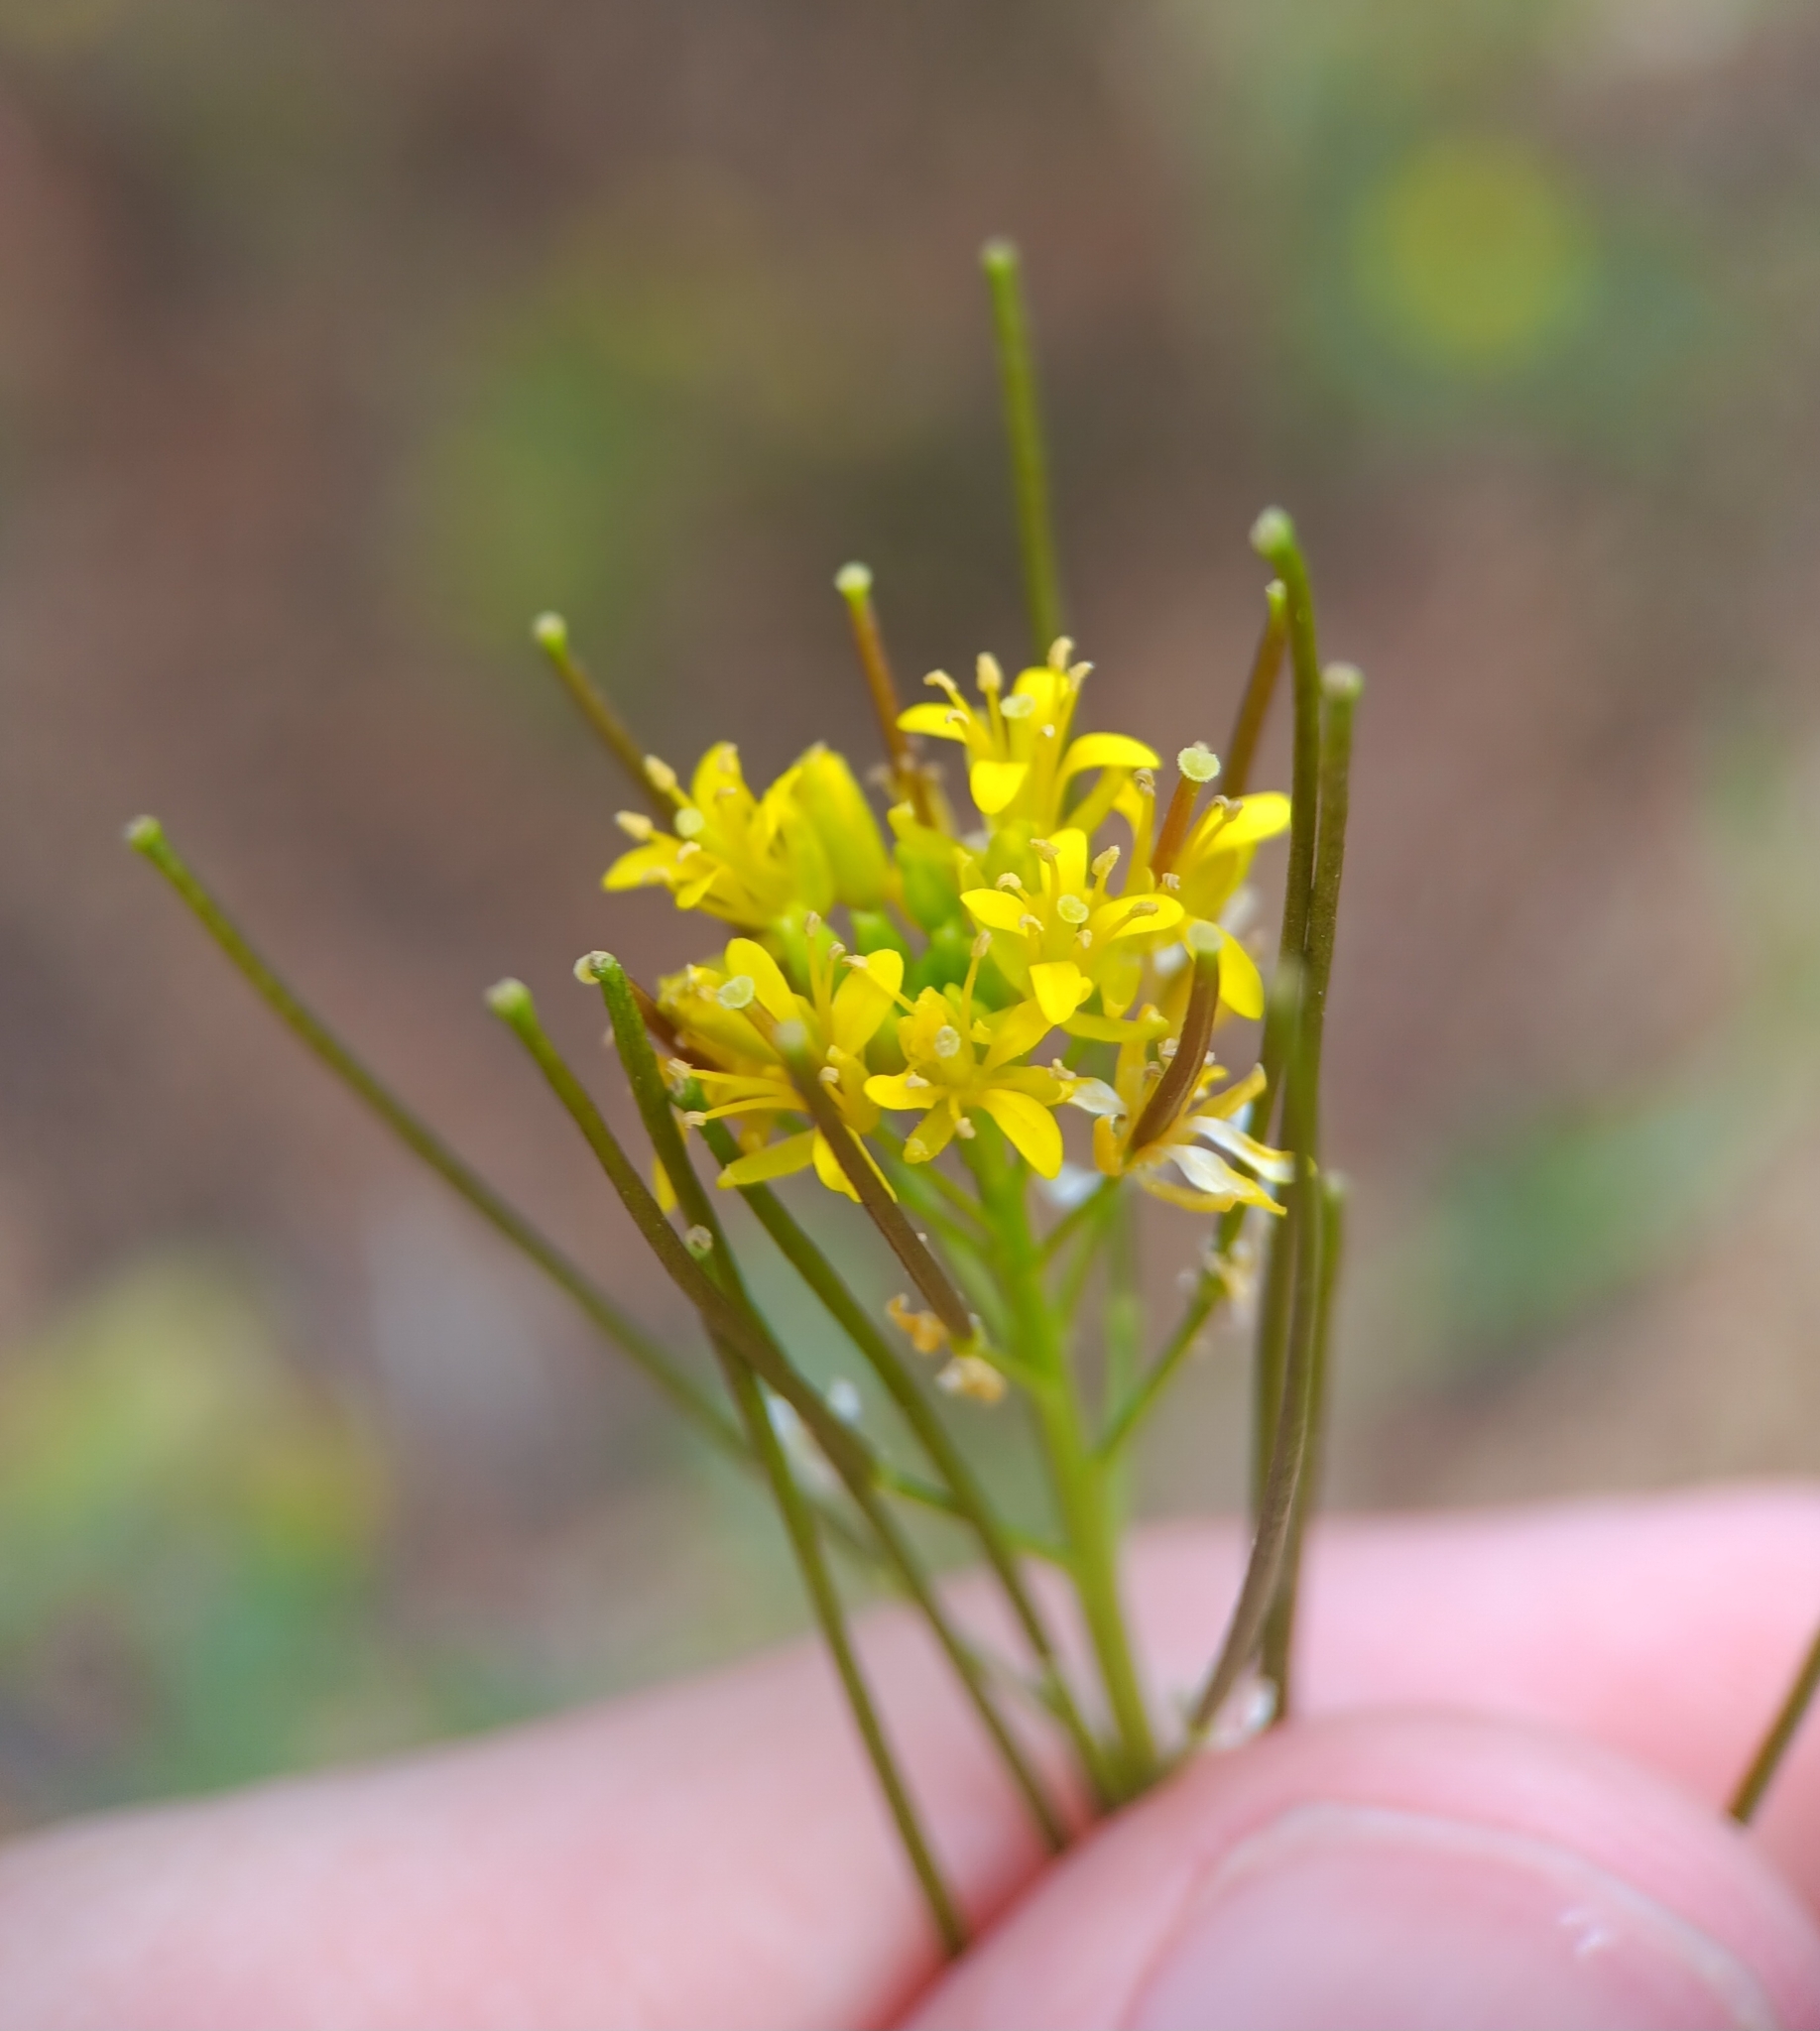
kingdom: Plantae
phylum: Tracheophyta
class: Magnoliopsida
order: Brassicales
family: Brassicaceae
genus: Sisymbrium
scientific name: Sisymbrium irio
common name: London rocket
